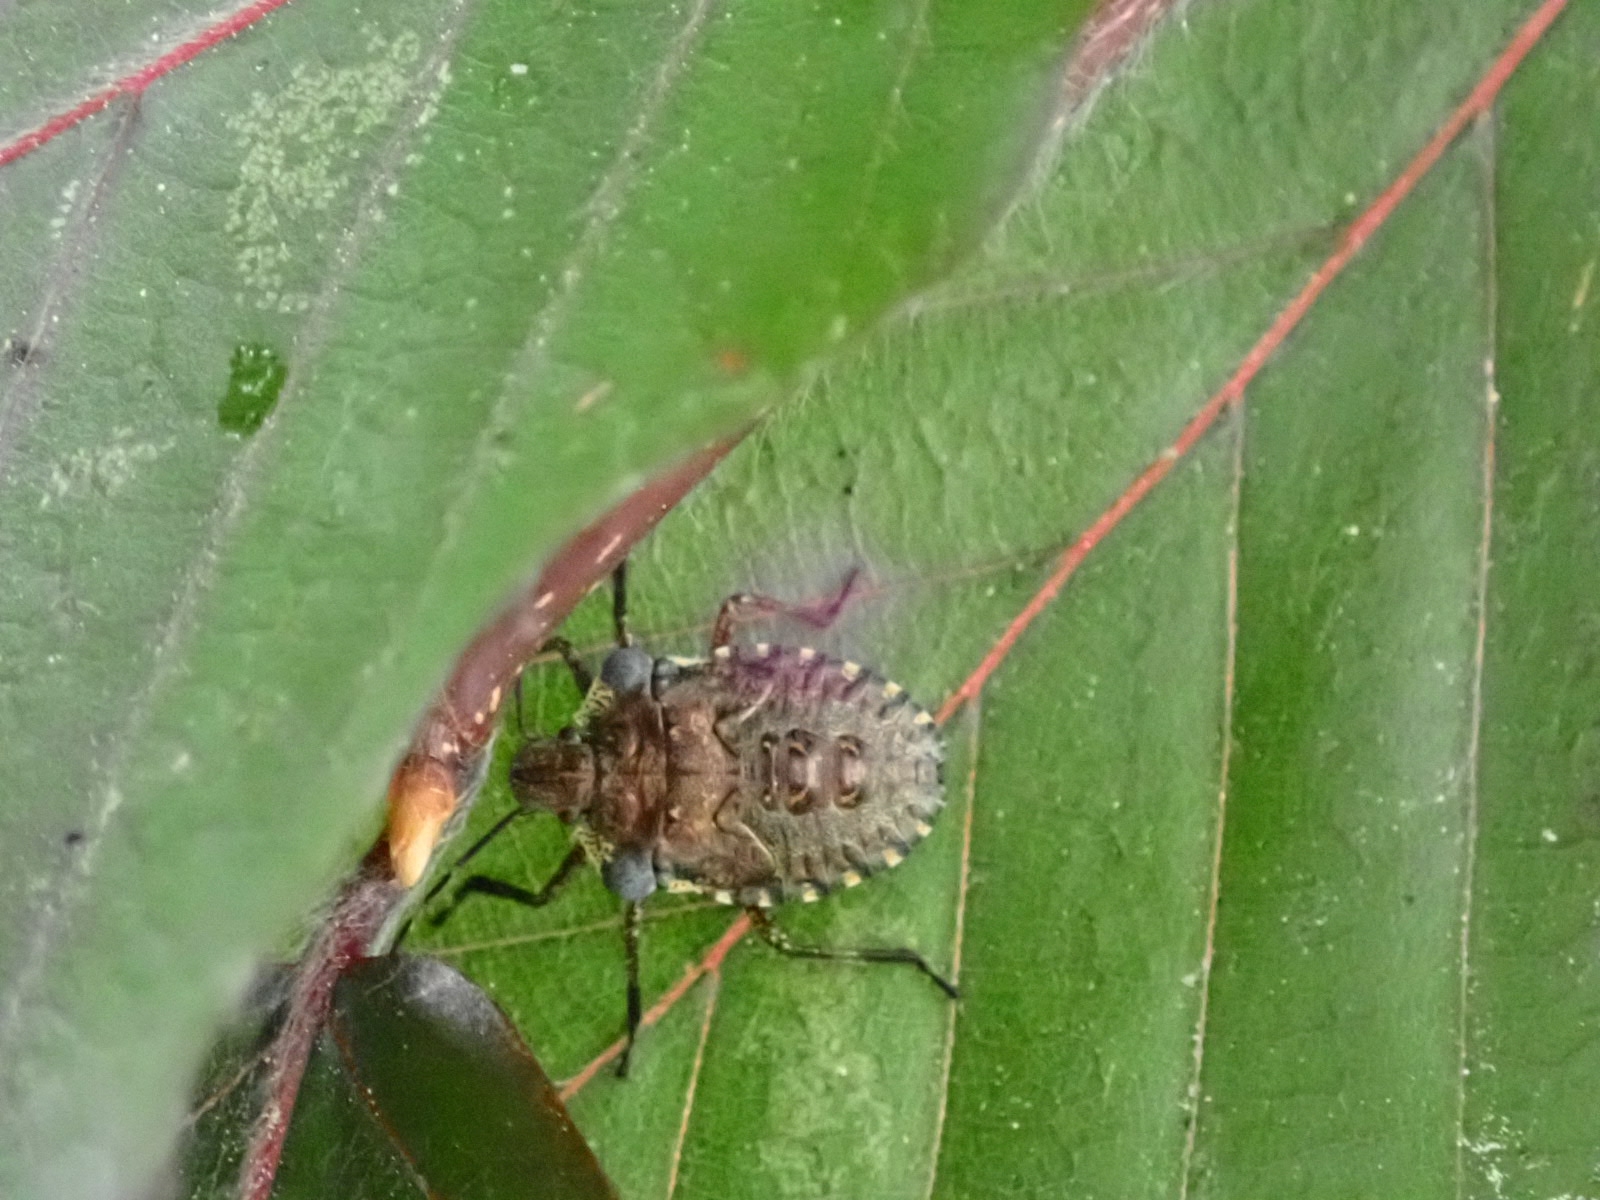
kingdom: Animalia
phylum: Arthropoda
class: Insecta
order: Hemiptera
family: Pentatomidae
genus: Pentatoma
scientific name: Pentatoma rufipes
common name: Forest bug
